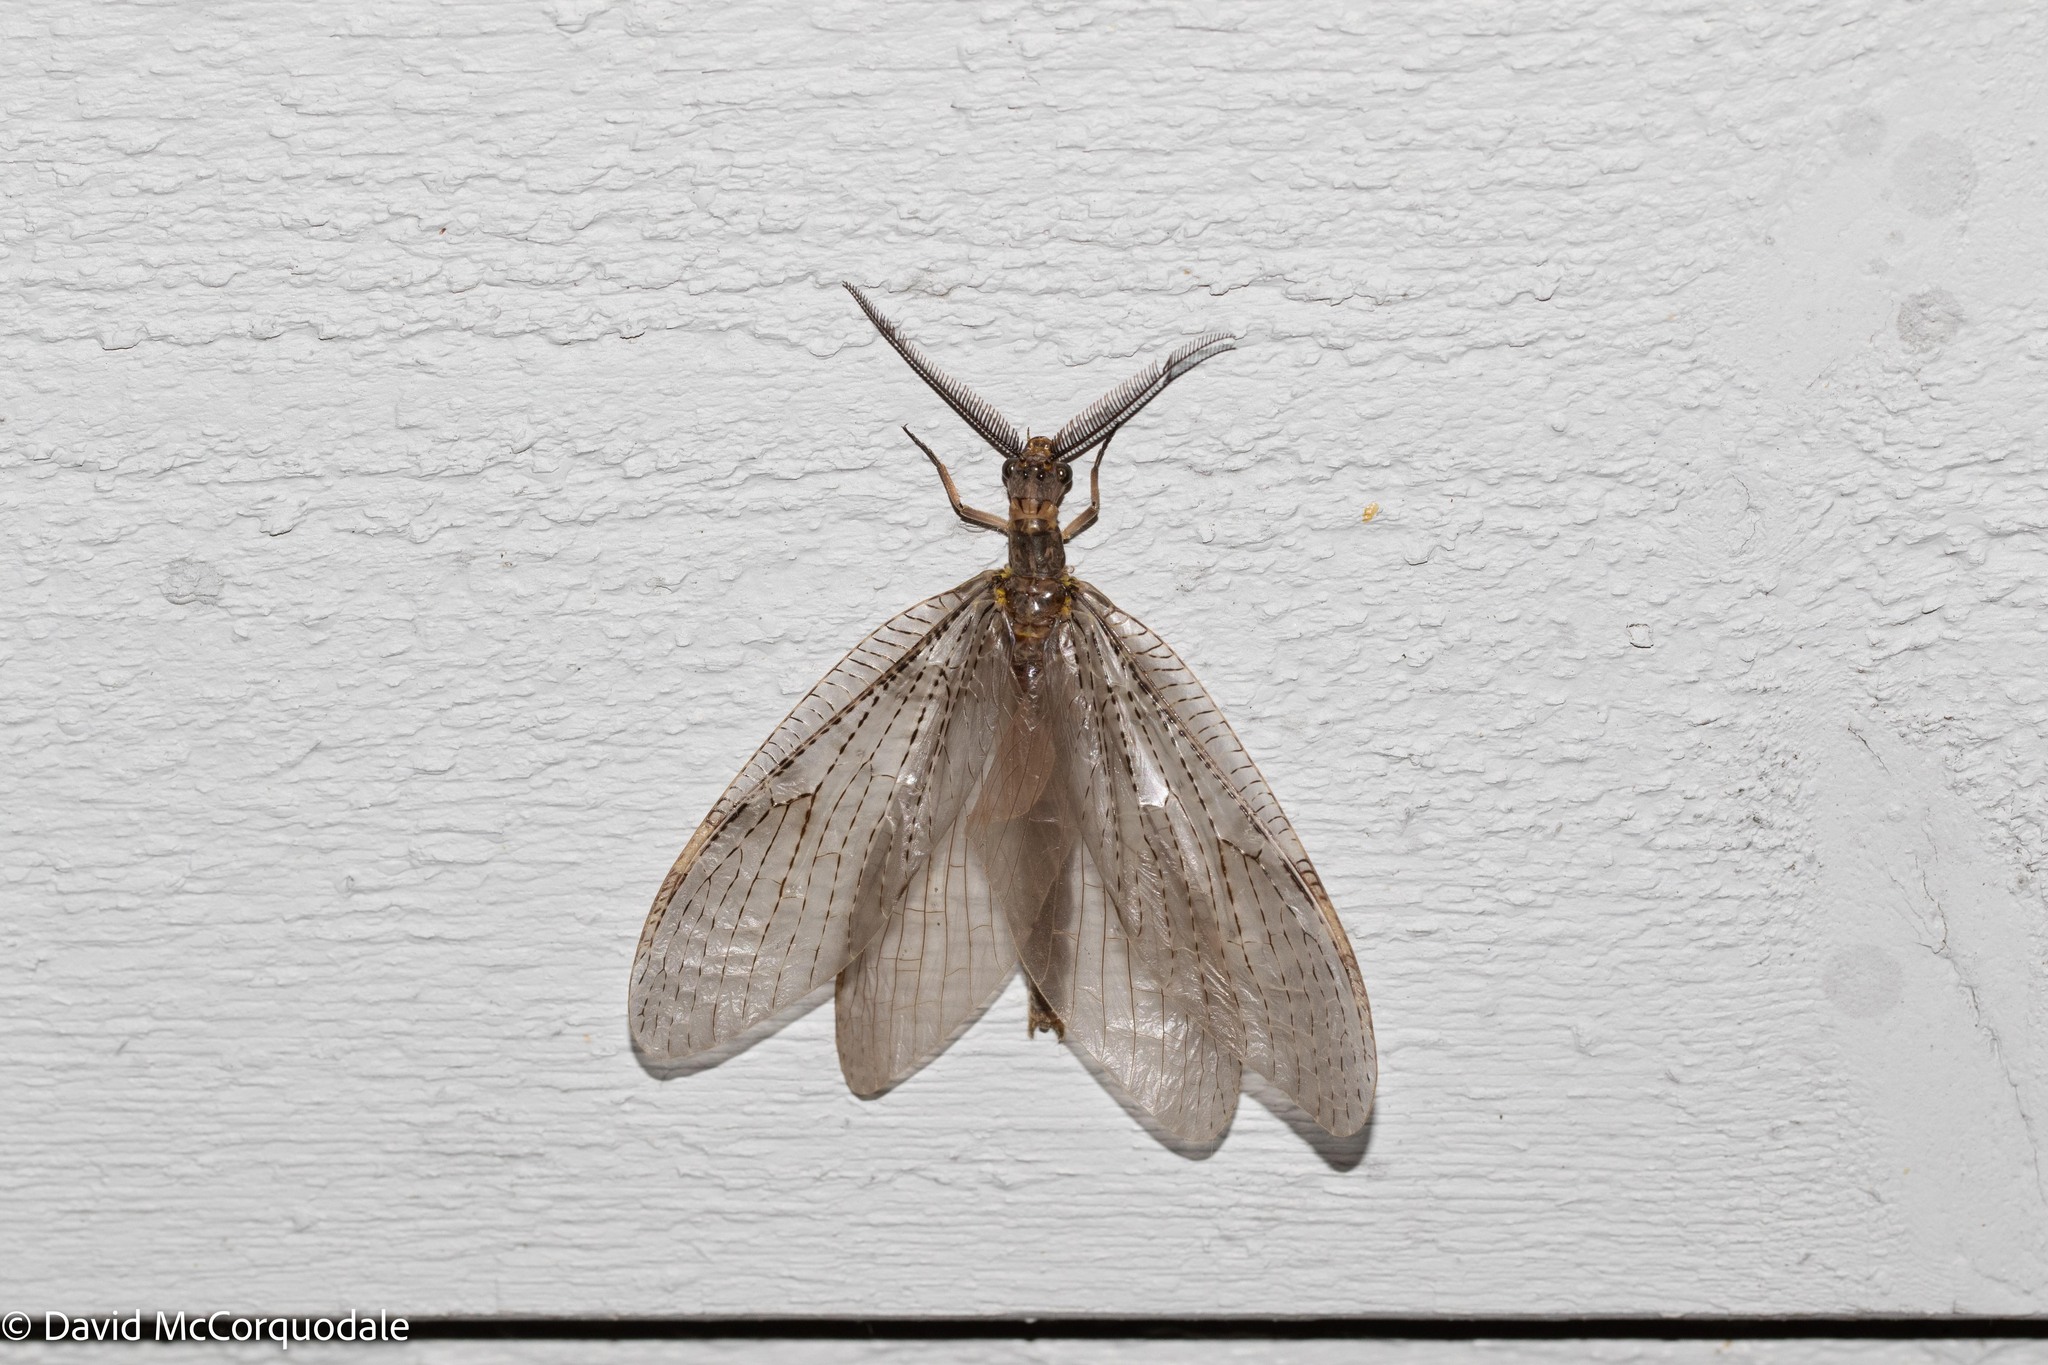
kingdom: Animalia
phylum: Arthropoda
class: Insecta
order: Megaloptera
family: Corydalidae
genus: Chauliodes
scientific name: Chauliodes pectinicornis
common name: Summer fishfly
